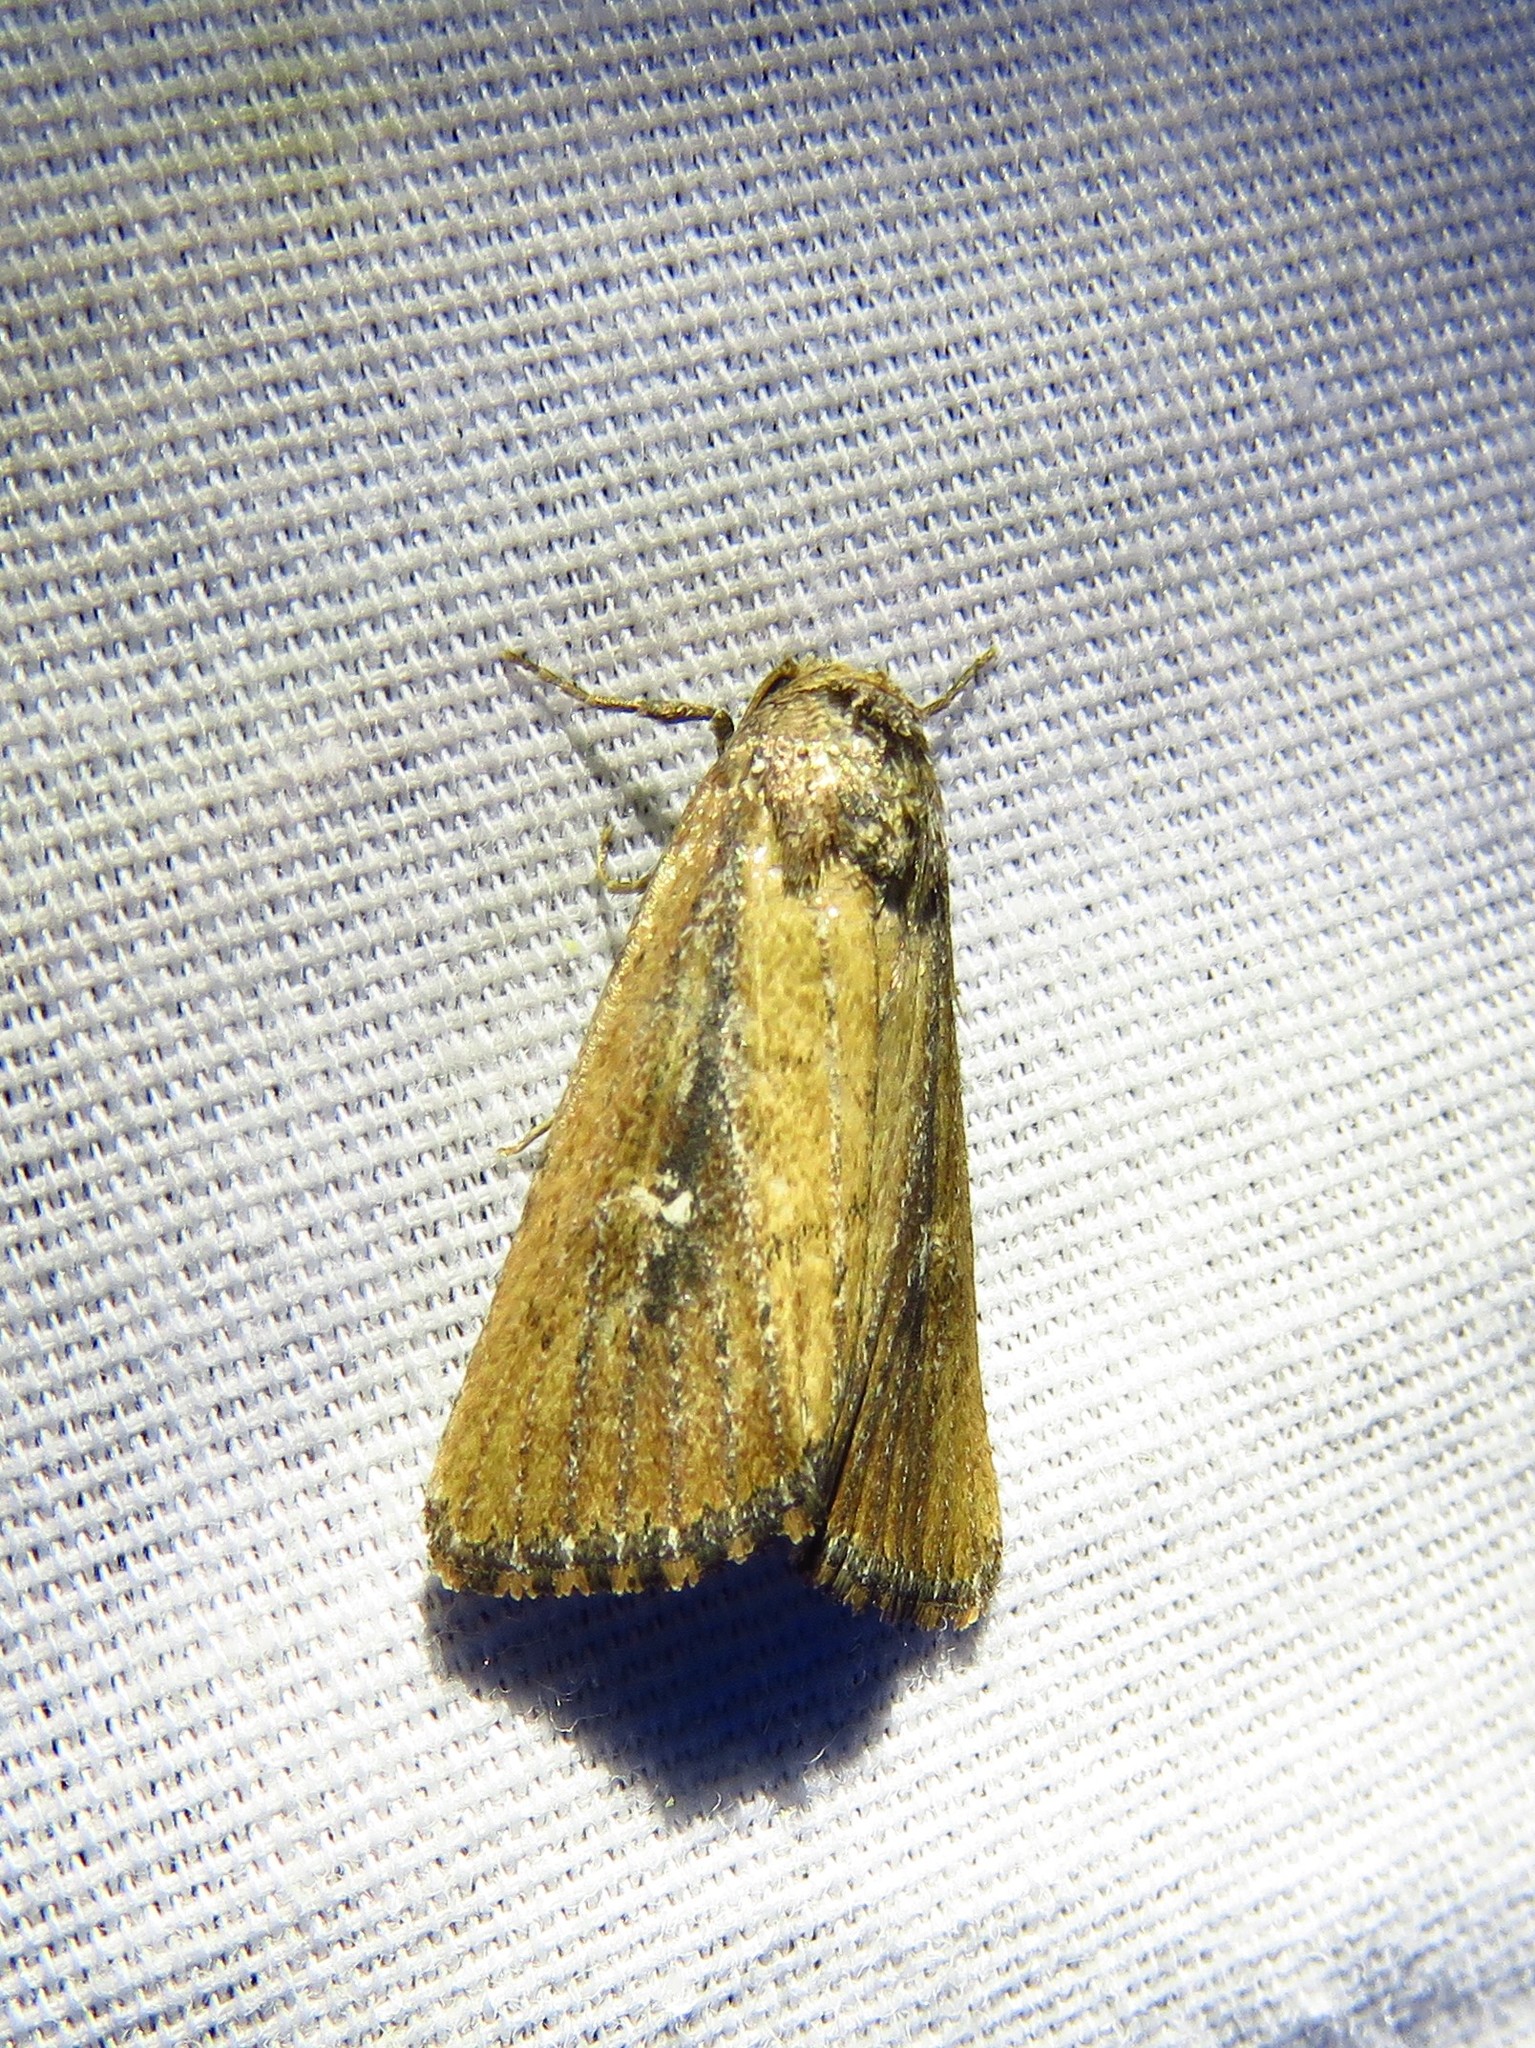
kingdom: Animalia
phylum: Arthropoda
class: Insecta
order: Lepidoptera
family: Noctuidae
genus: Condica
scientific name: Condica videns
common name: White-dotted groundling
